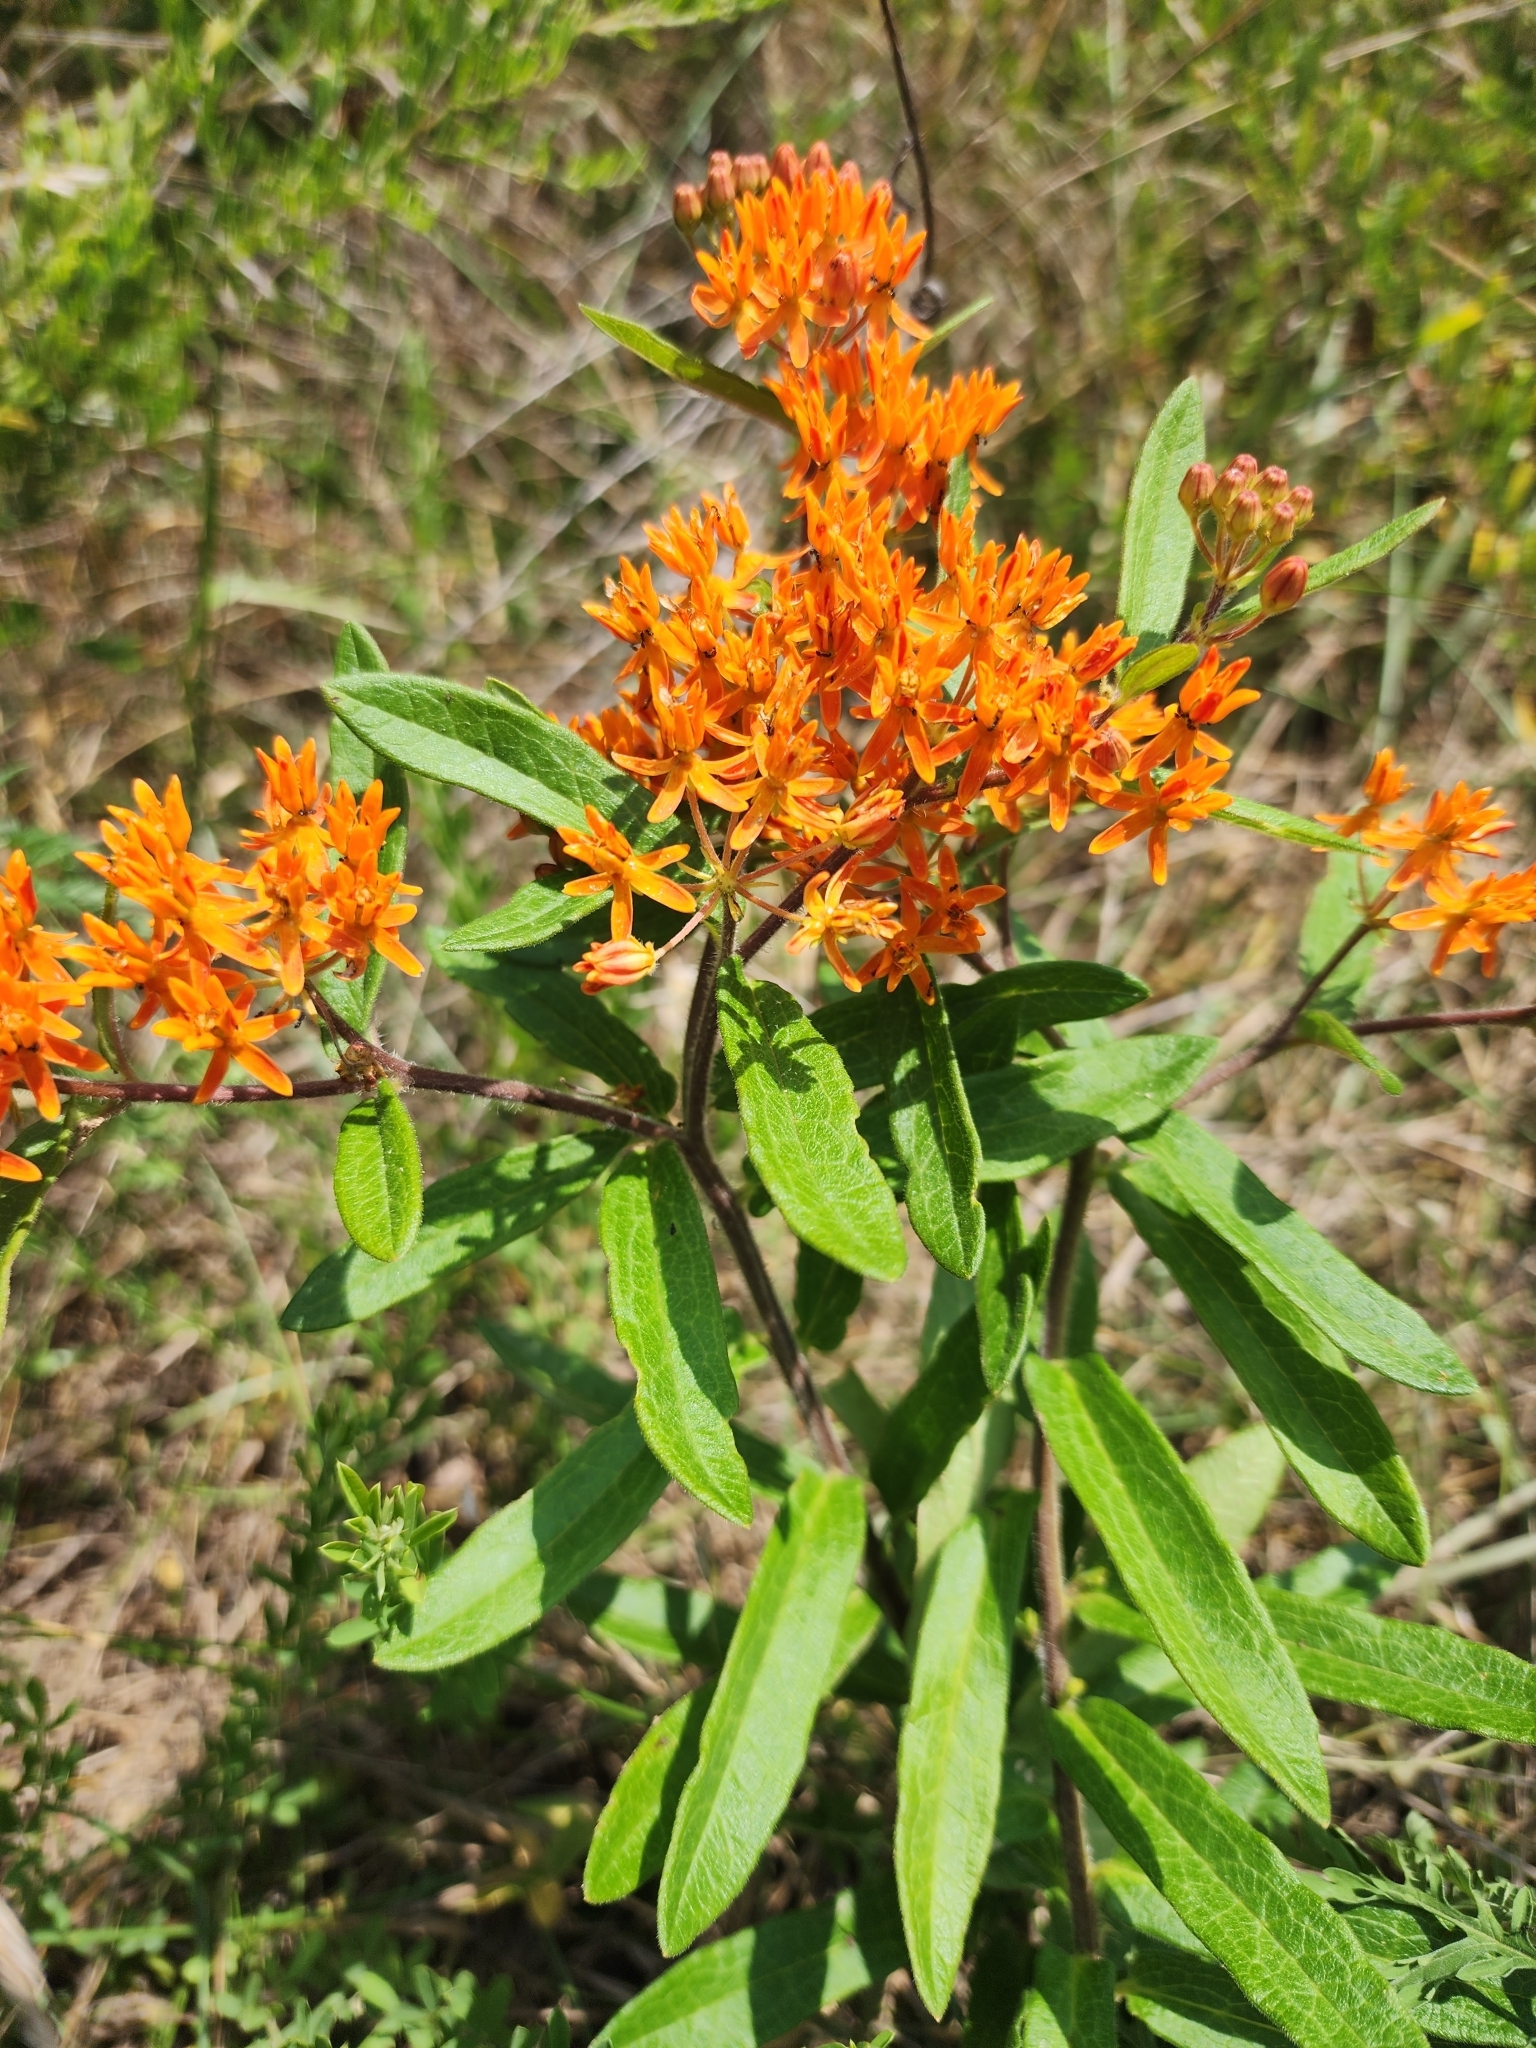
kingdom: Plantae
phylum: Tracheophyta
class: Magnoliopsida
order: Gentianales
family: Apocynaceae
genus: Asclepias
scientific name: Asclepias tuberosa
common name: Butterfly milkweed
